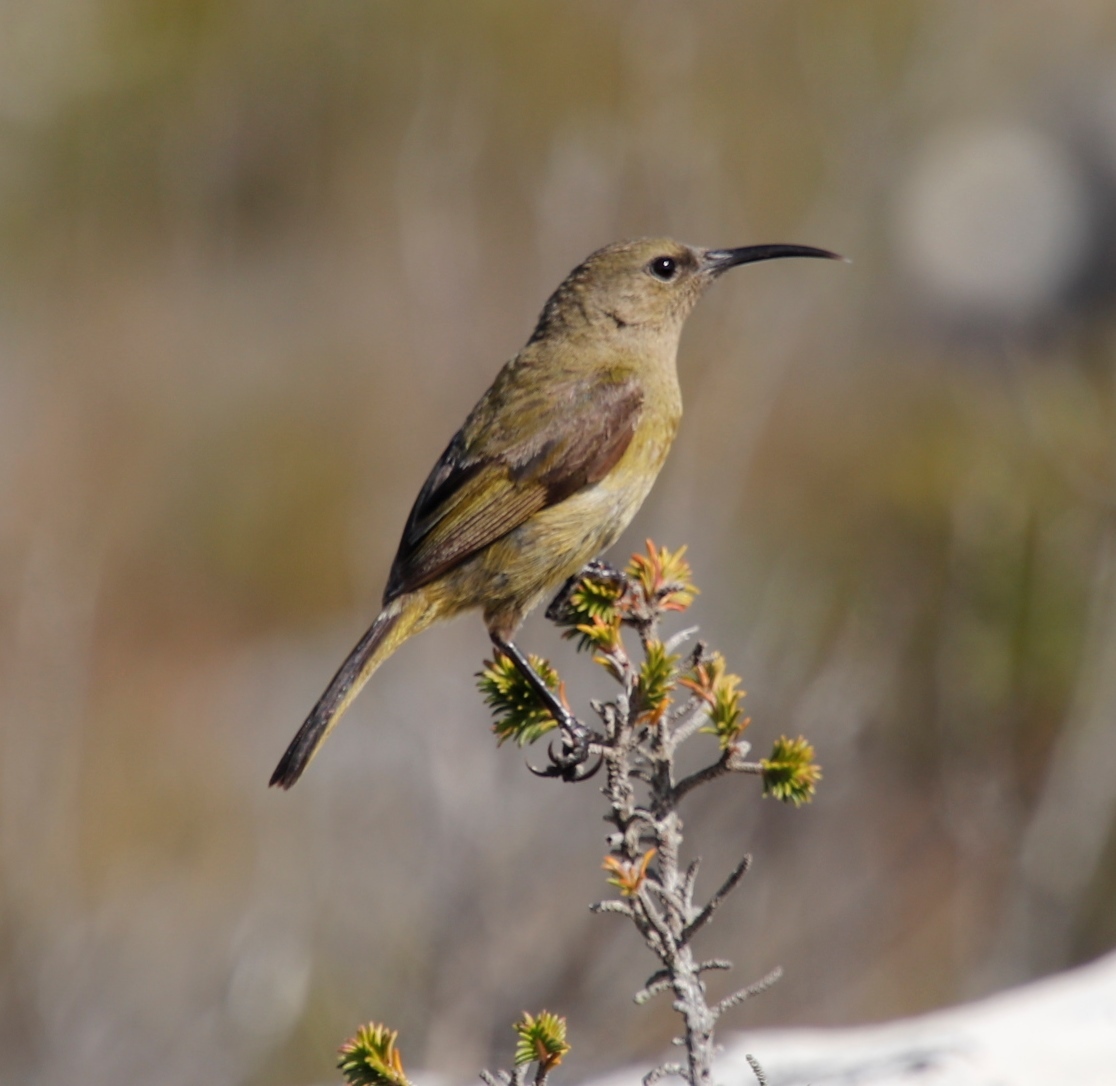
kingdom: Animalia
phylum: Chordata
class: Aves
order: Passeriformes
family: Nectariniidae
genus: Anthobaphes
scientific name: Anthobaphes violacea
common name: Orange-breasted sunbird
